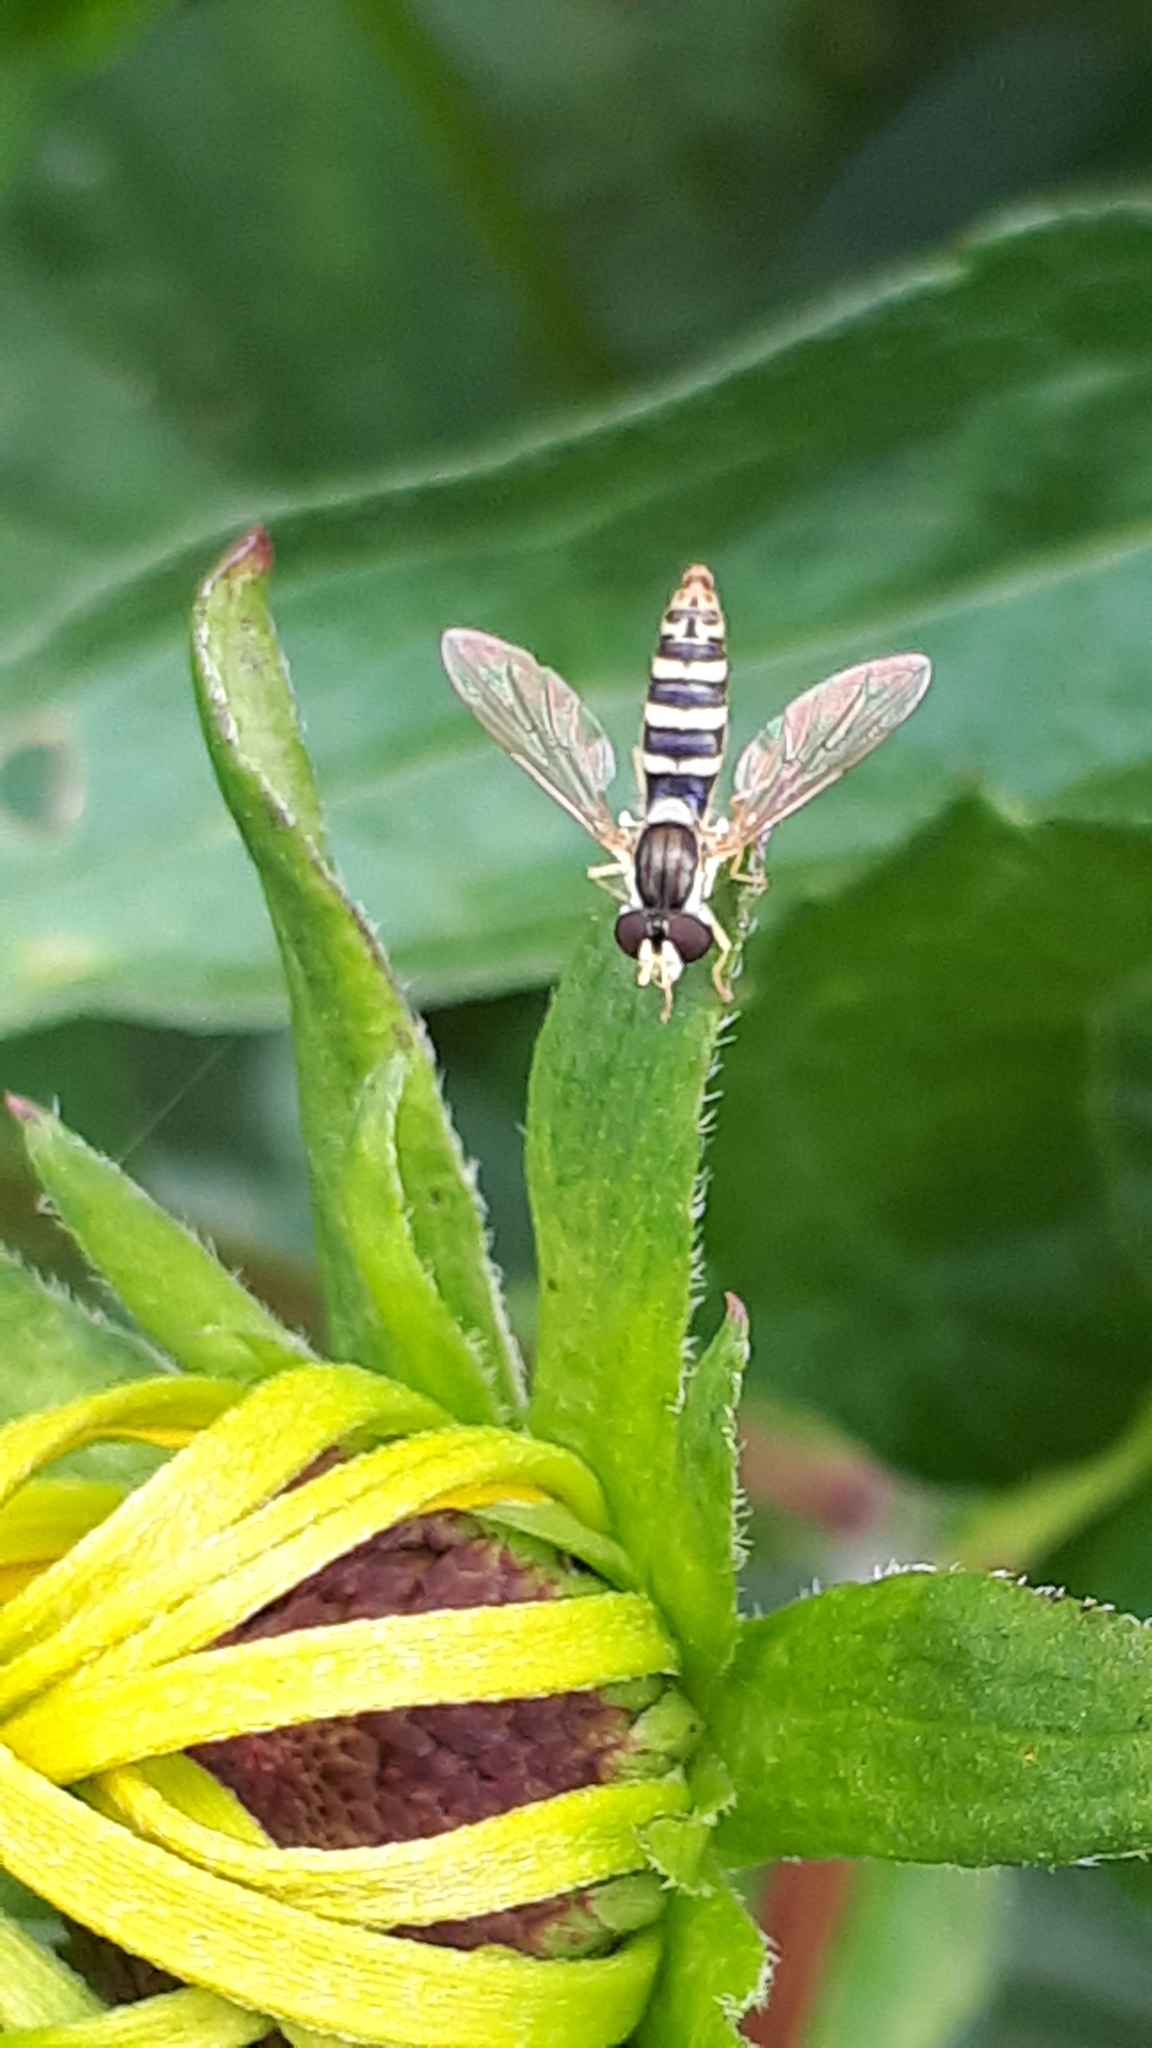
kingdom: Animalia
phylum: Arthropoda
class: Insecta
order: Diptera
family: Syrphidae
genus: Sphaerophoria
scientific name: Sphaerophoria
